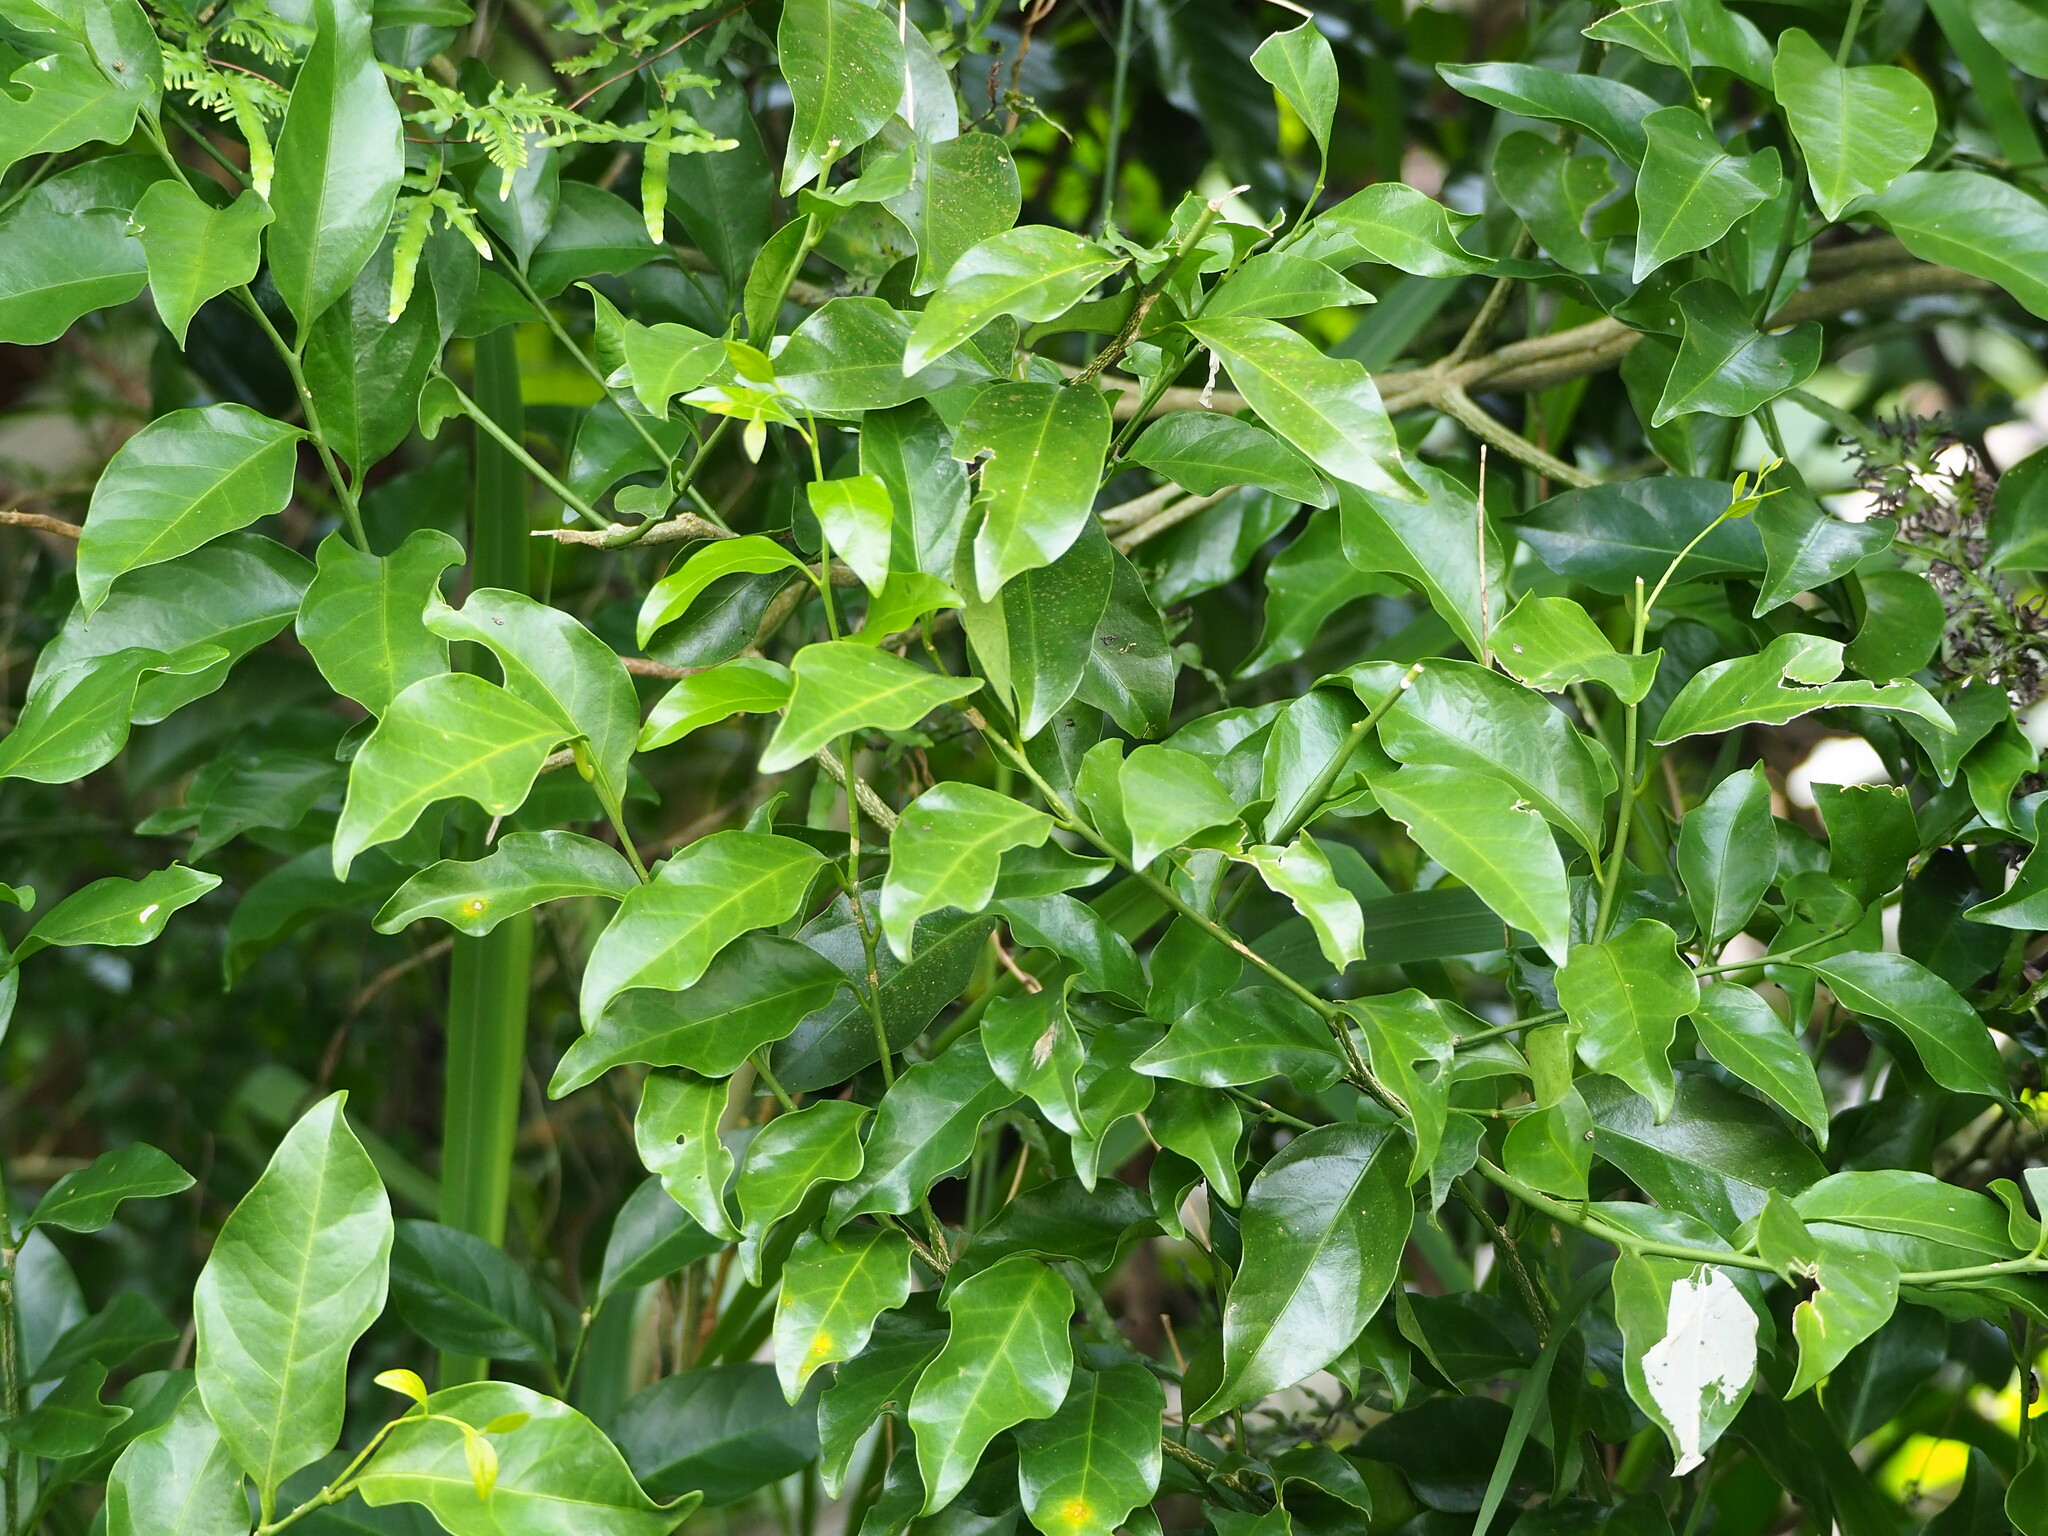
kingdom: Plantae
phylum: Tracheophyta
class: Magnoliopsida
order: Santalales
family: Opiliaceae
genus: Champereia
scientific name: Champereia manillana
